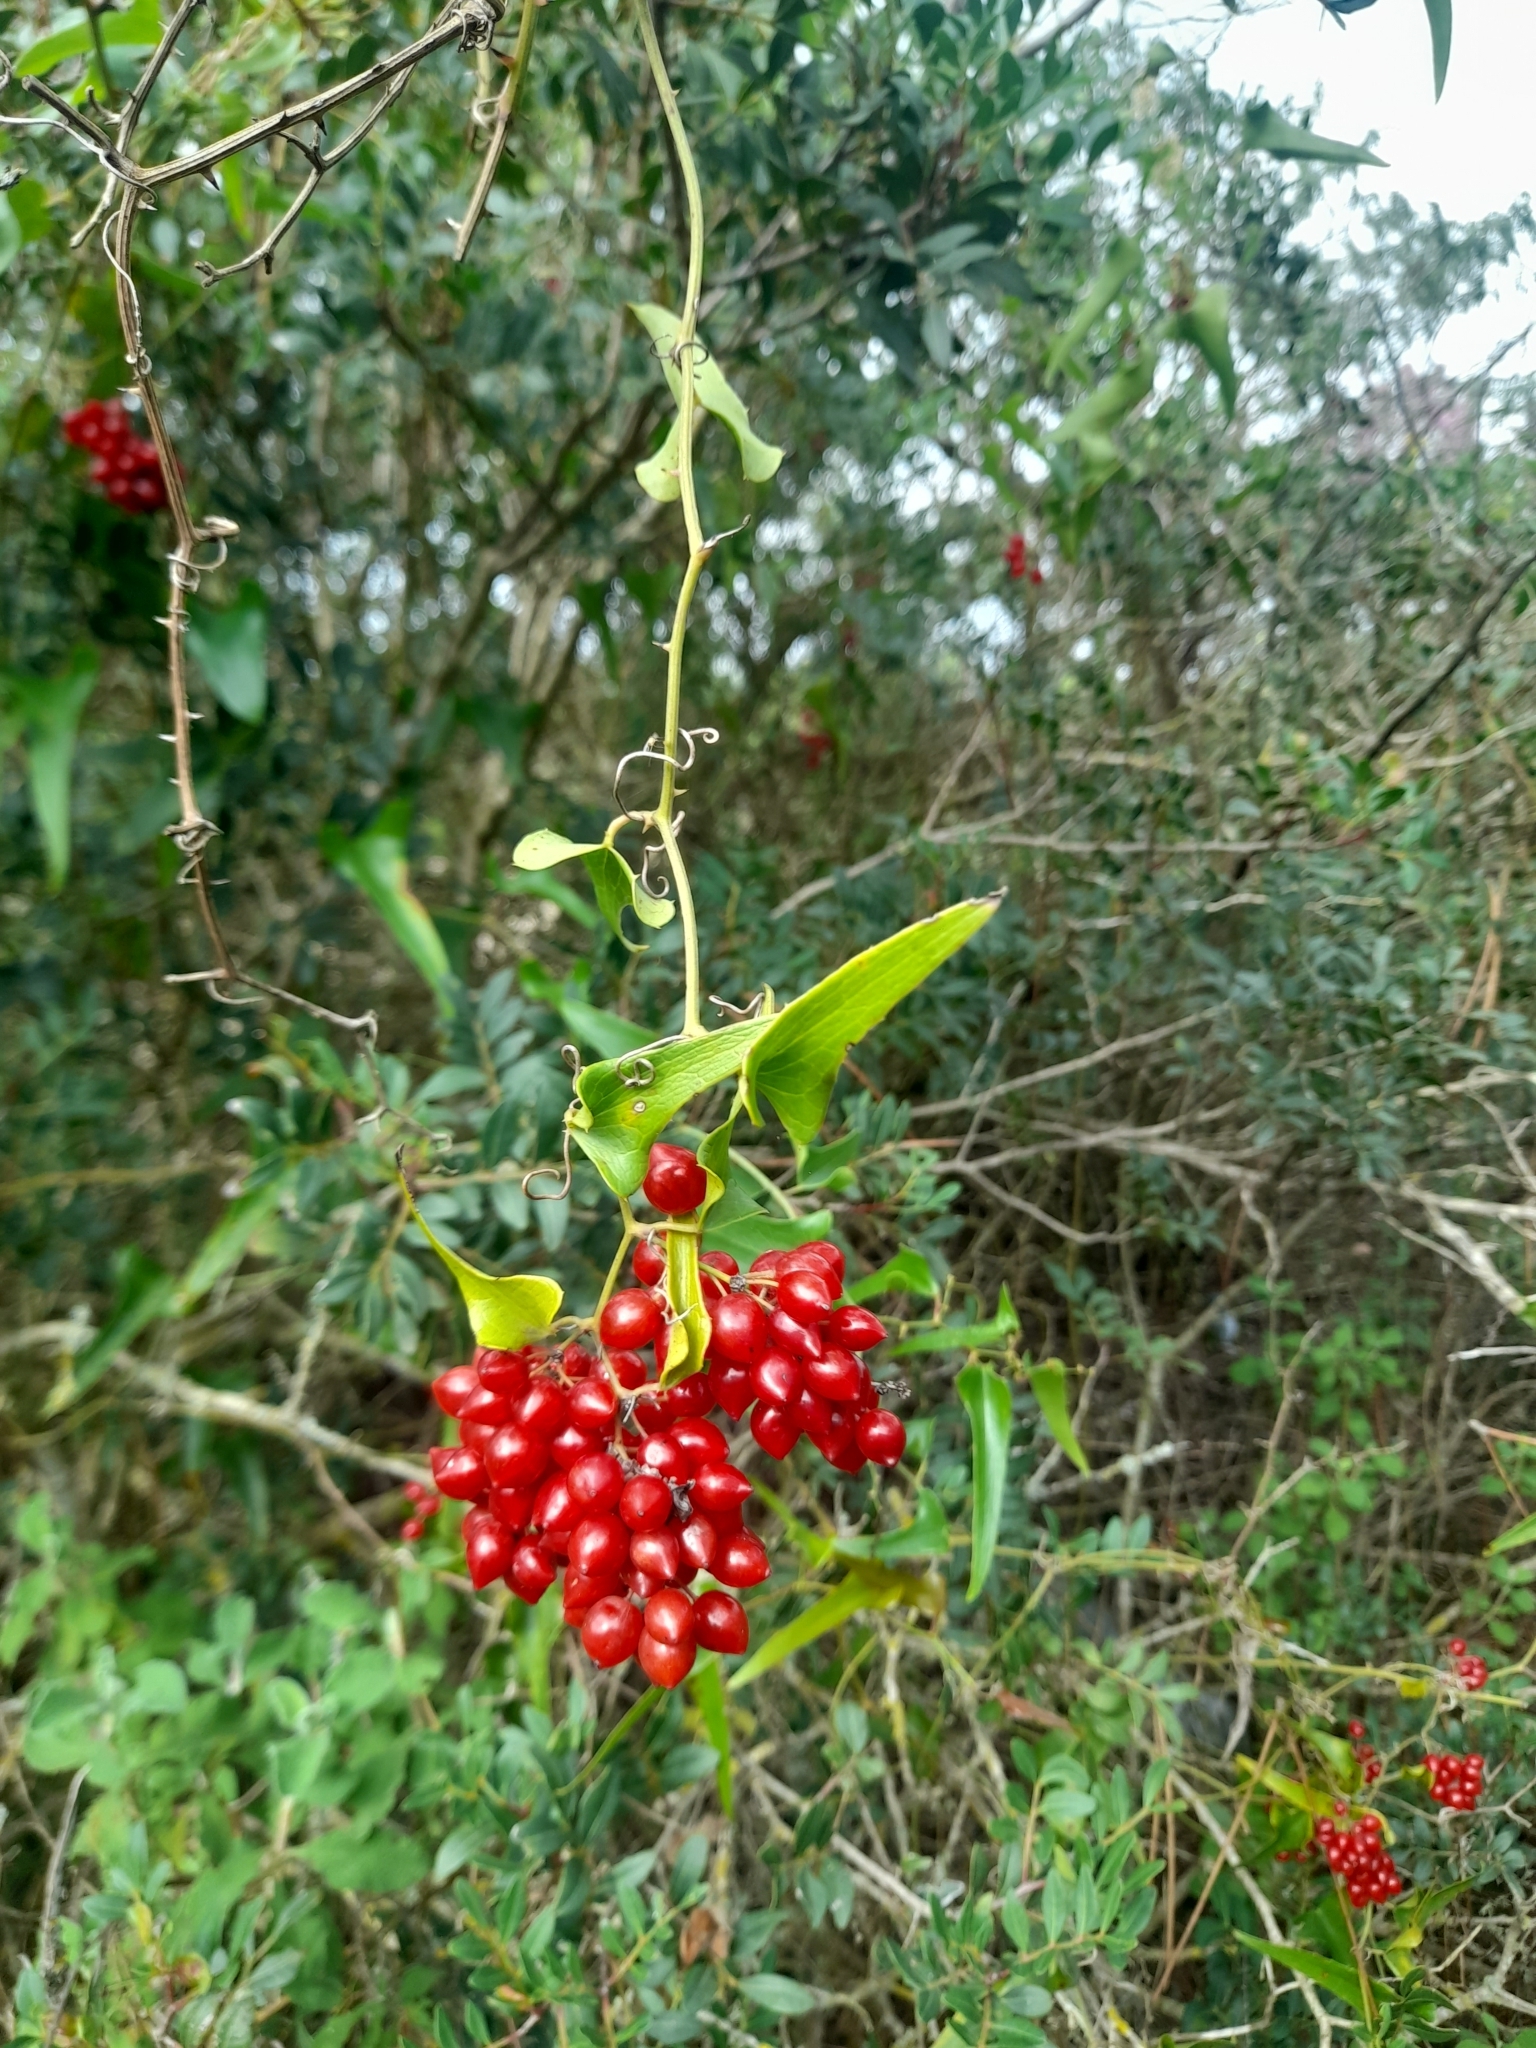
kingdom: Plantae
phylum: Tracheophyta
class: Liliopsida
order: Liliales
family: Smilacaceae
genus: Smilax
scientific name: Smilax aspera
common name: Common smilax
